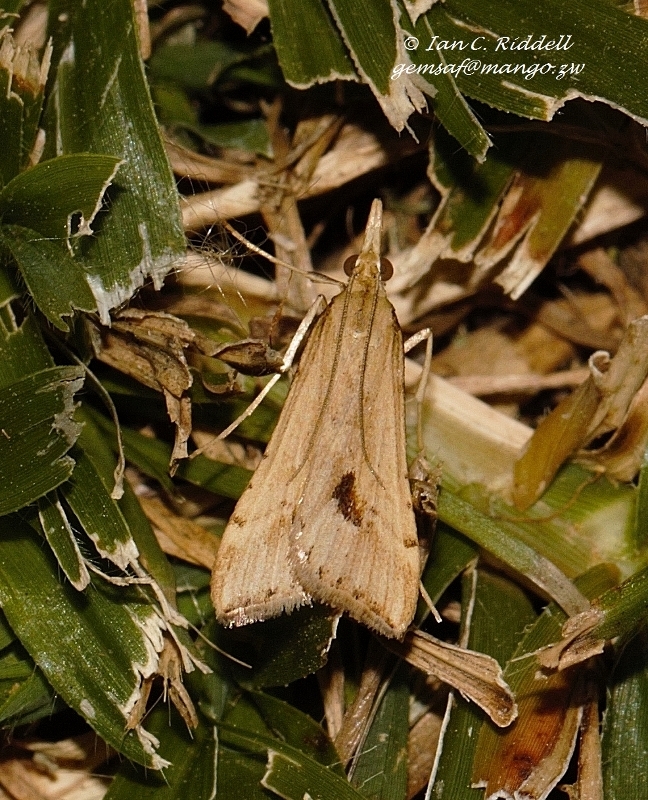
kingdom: Animalia
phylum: Arthropoda
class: Insecta
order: Lepidoptera
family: Crambidae
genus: Diasemia
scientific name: Diasemia monostigma
